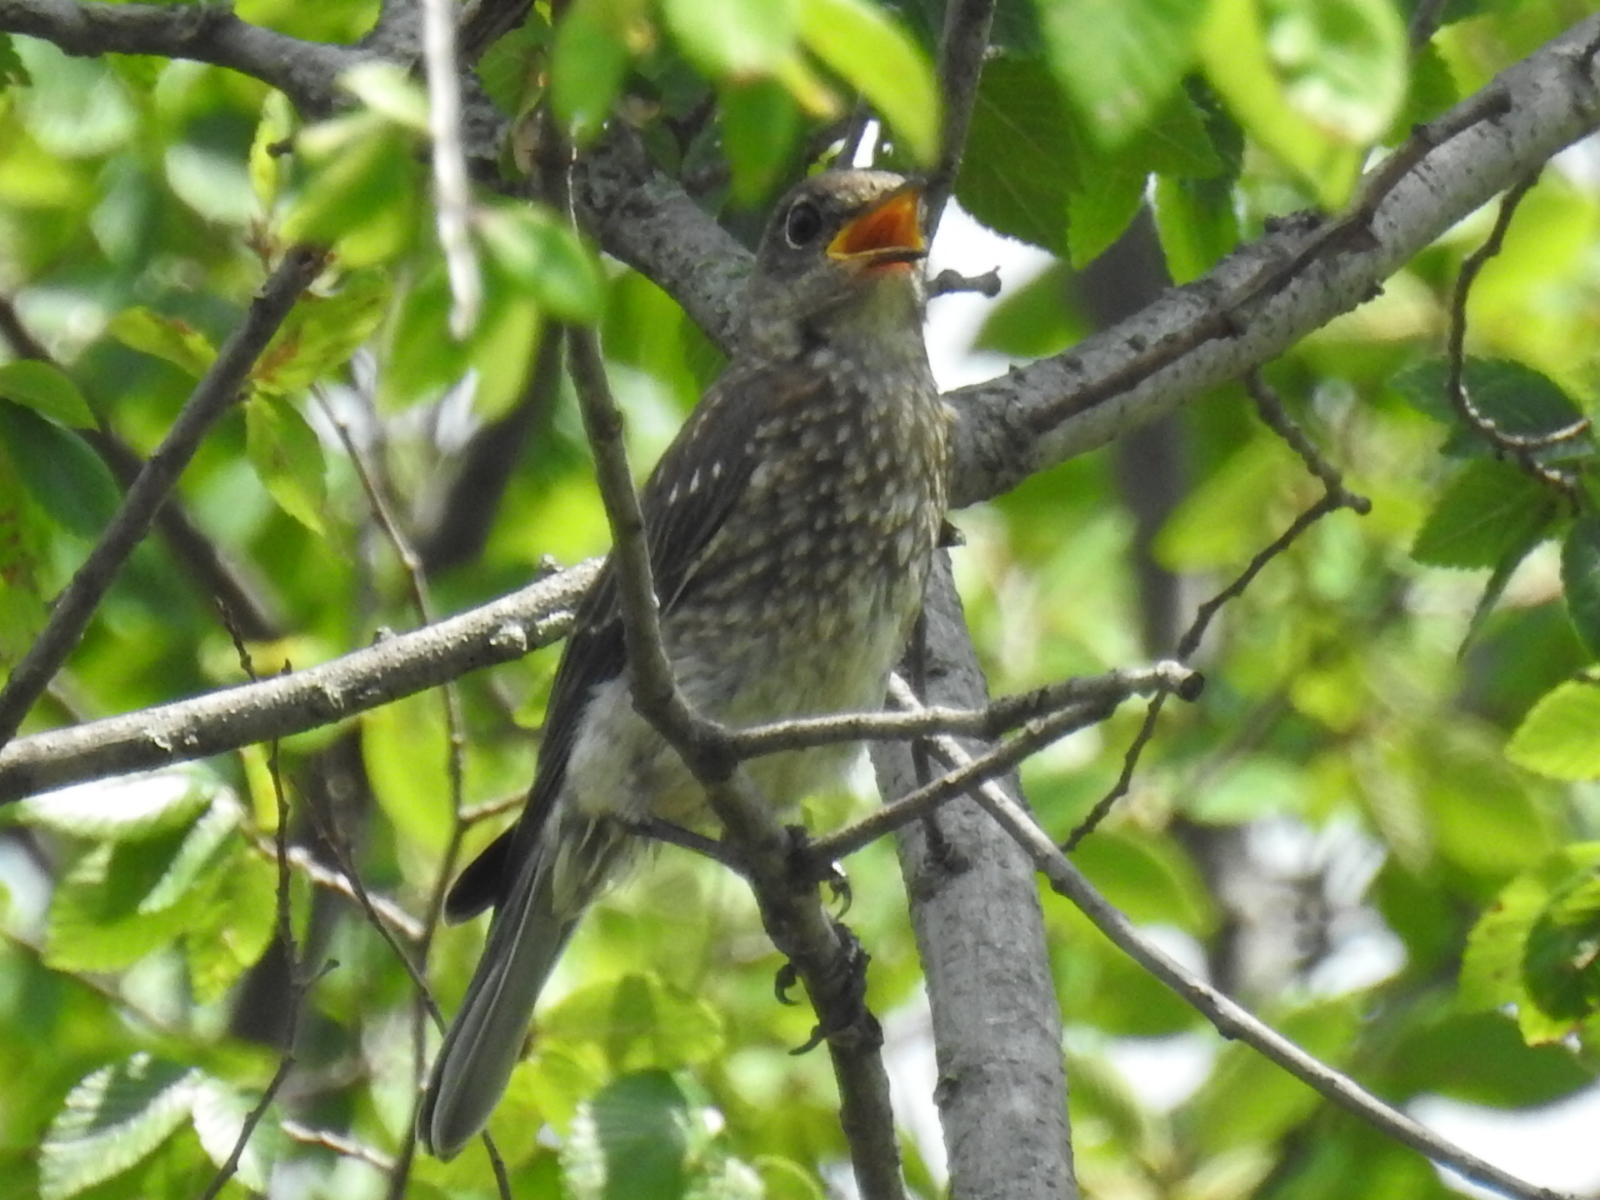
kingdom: Animalia
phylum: Chordata
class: Aves
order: Passeriformes
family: Turdidae
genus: Sialia
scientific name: Sialia sialis
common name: Eastern bluebird
